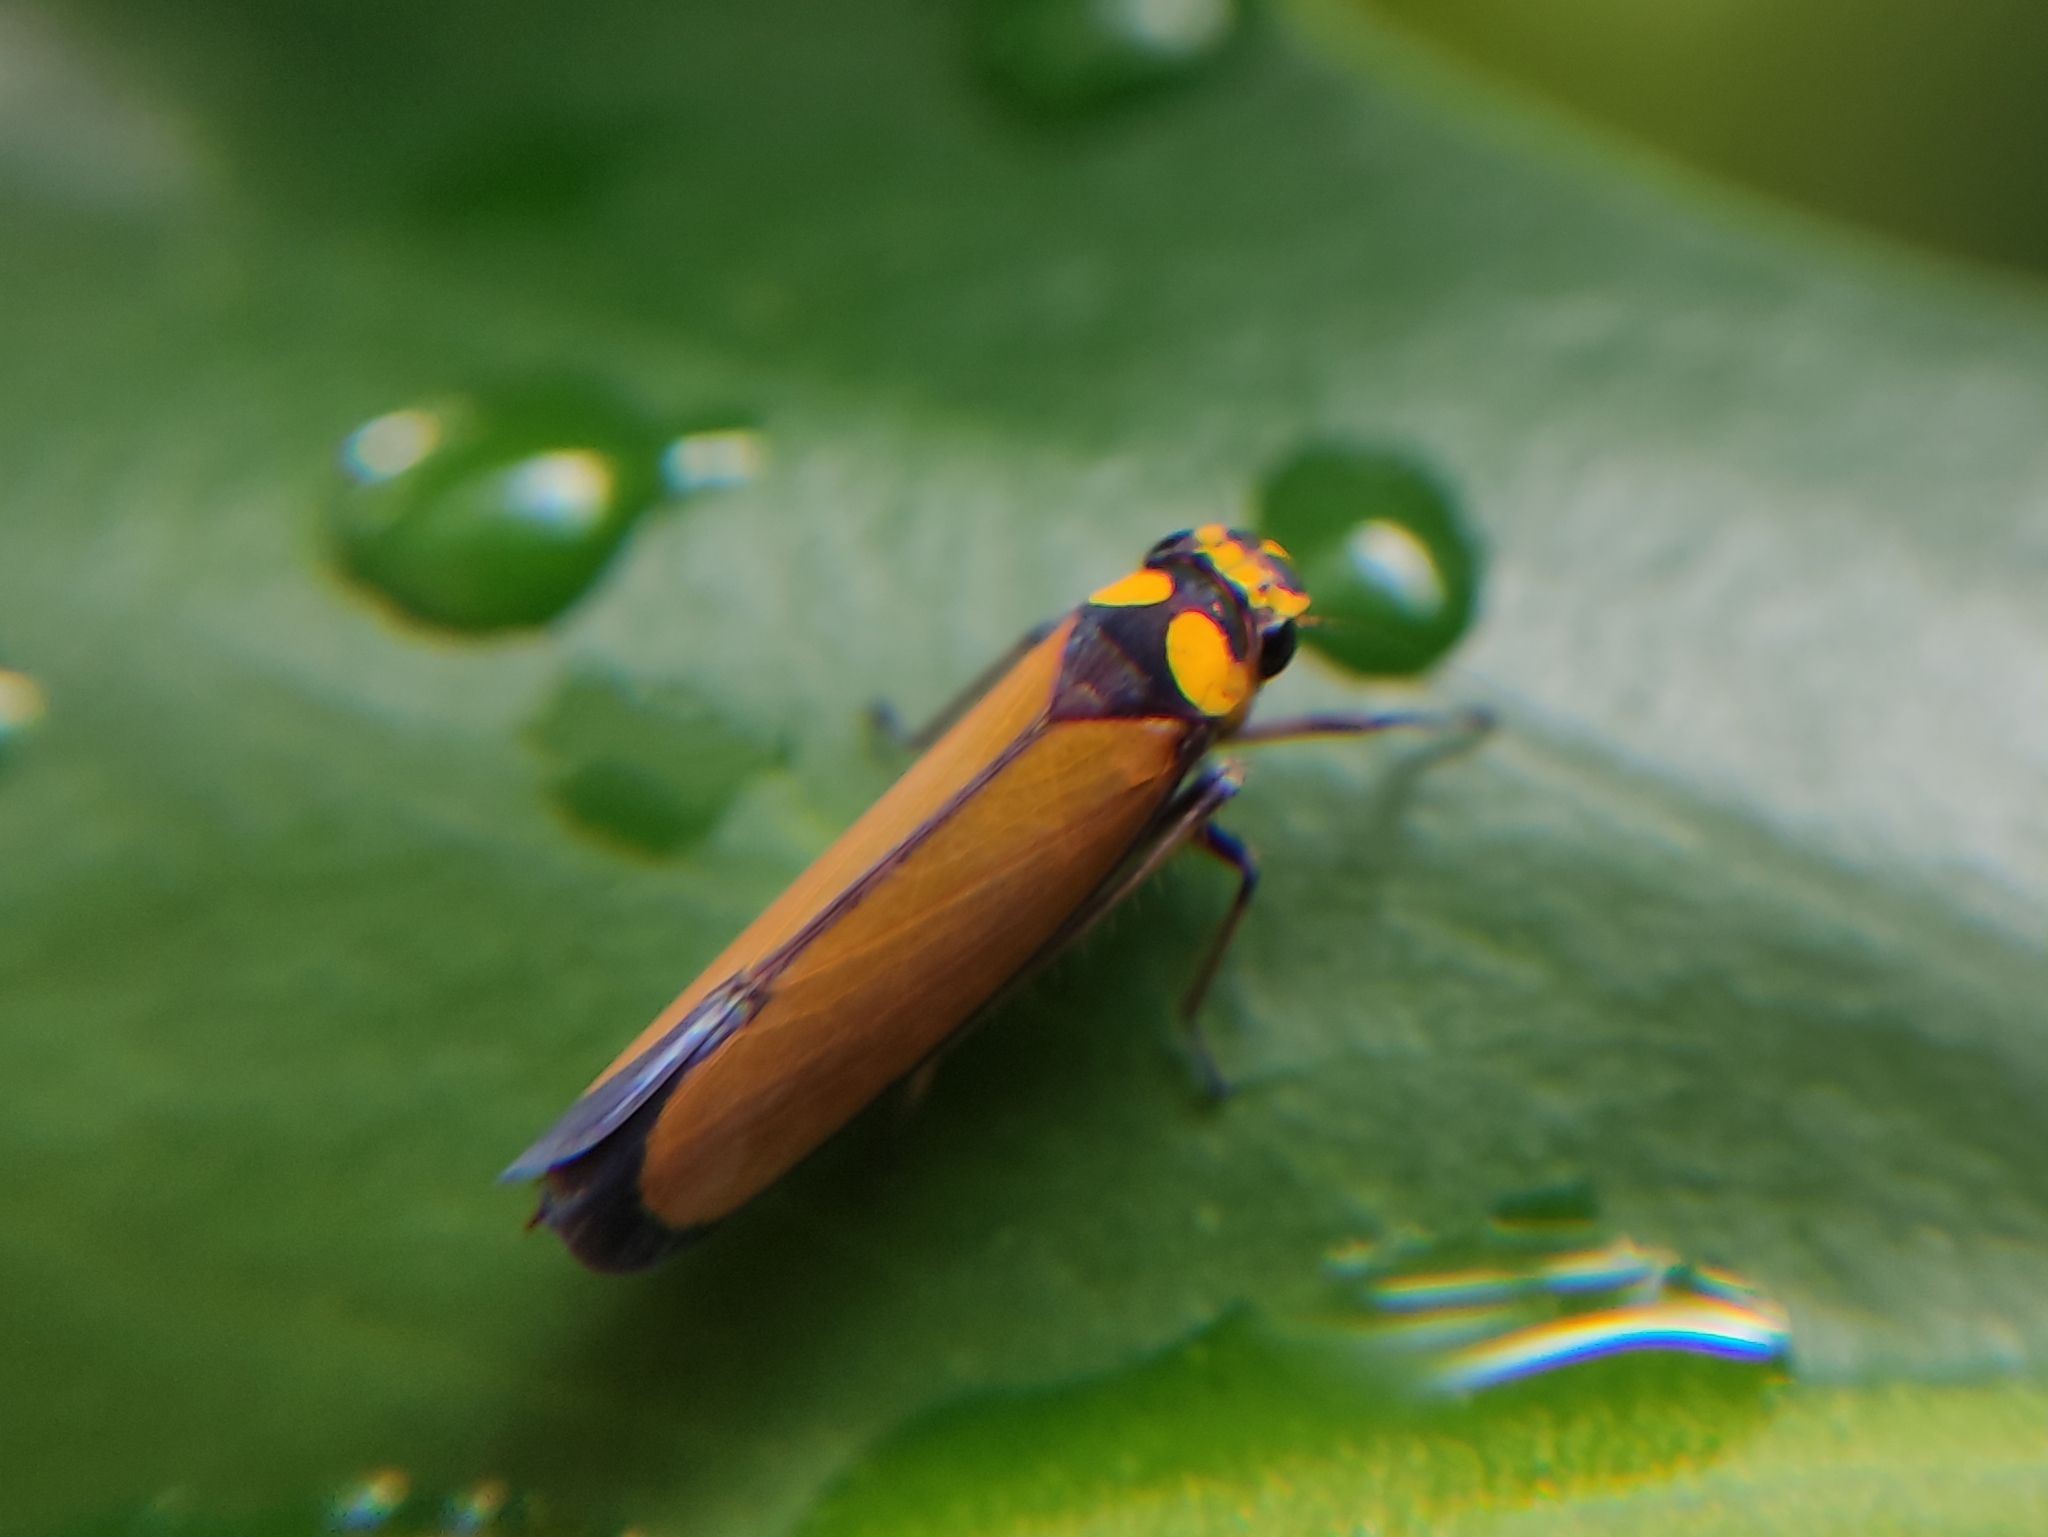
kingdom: Animalia
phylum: Arthropoda
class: Insecta
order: Hemiptera
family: Cicadellidae
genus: Paratubana
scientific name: Paratubana nigrocincta
